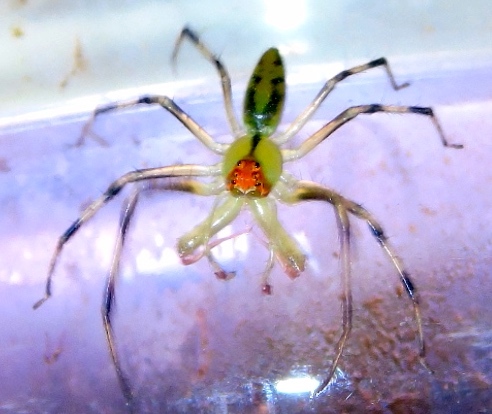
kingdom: Animalia
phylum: Arthropoda
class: Arachnida
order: Araneae
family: Salticidae
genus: Lyssomanes
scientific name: Lyssomanes
